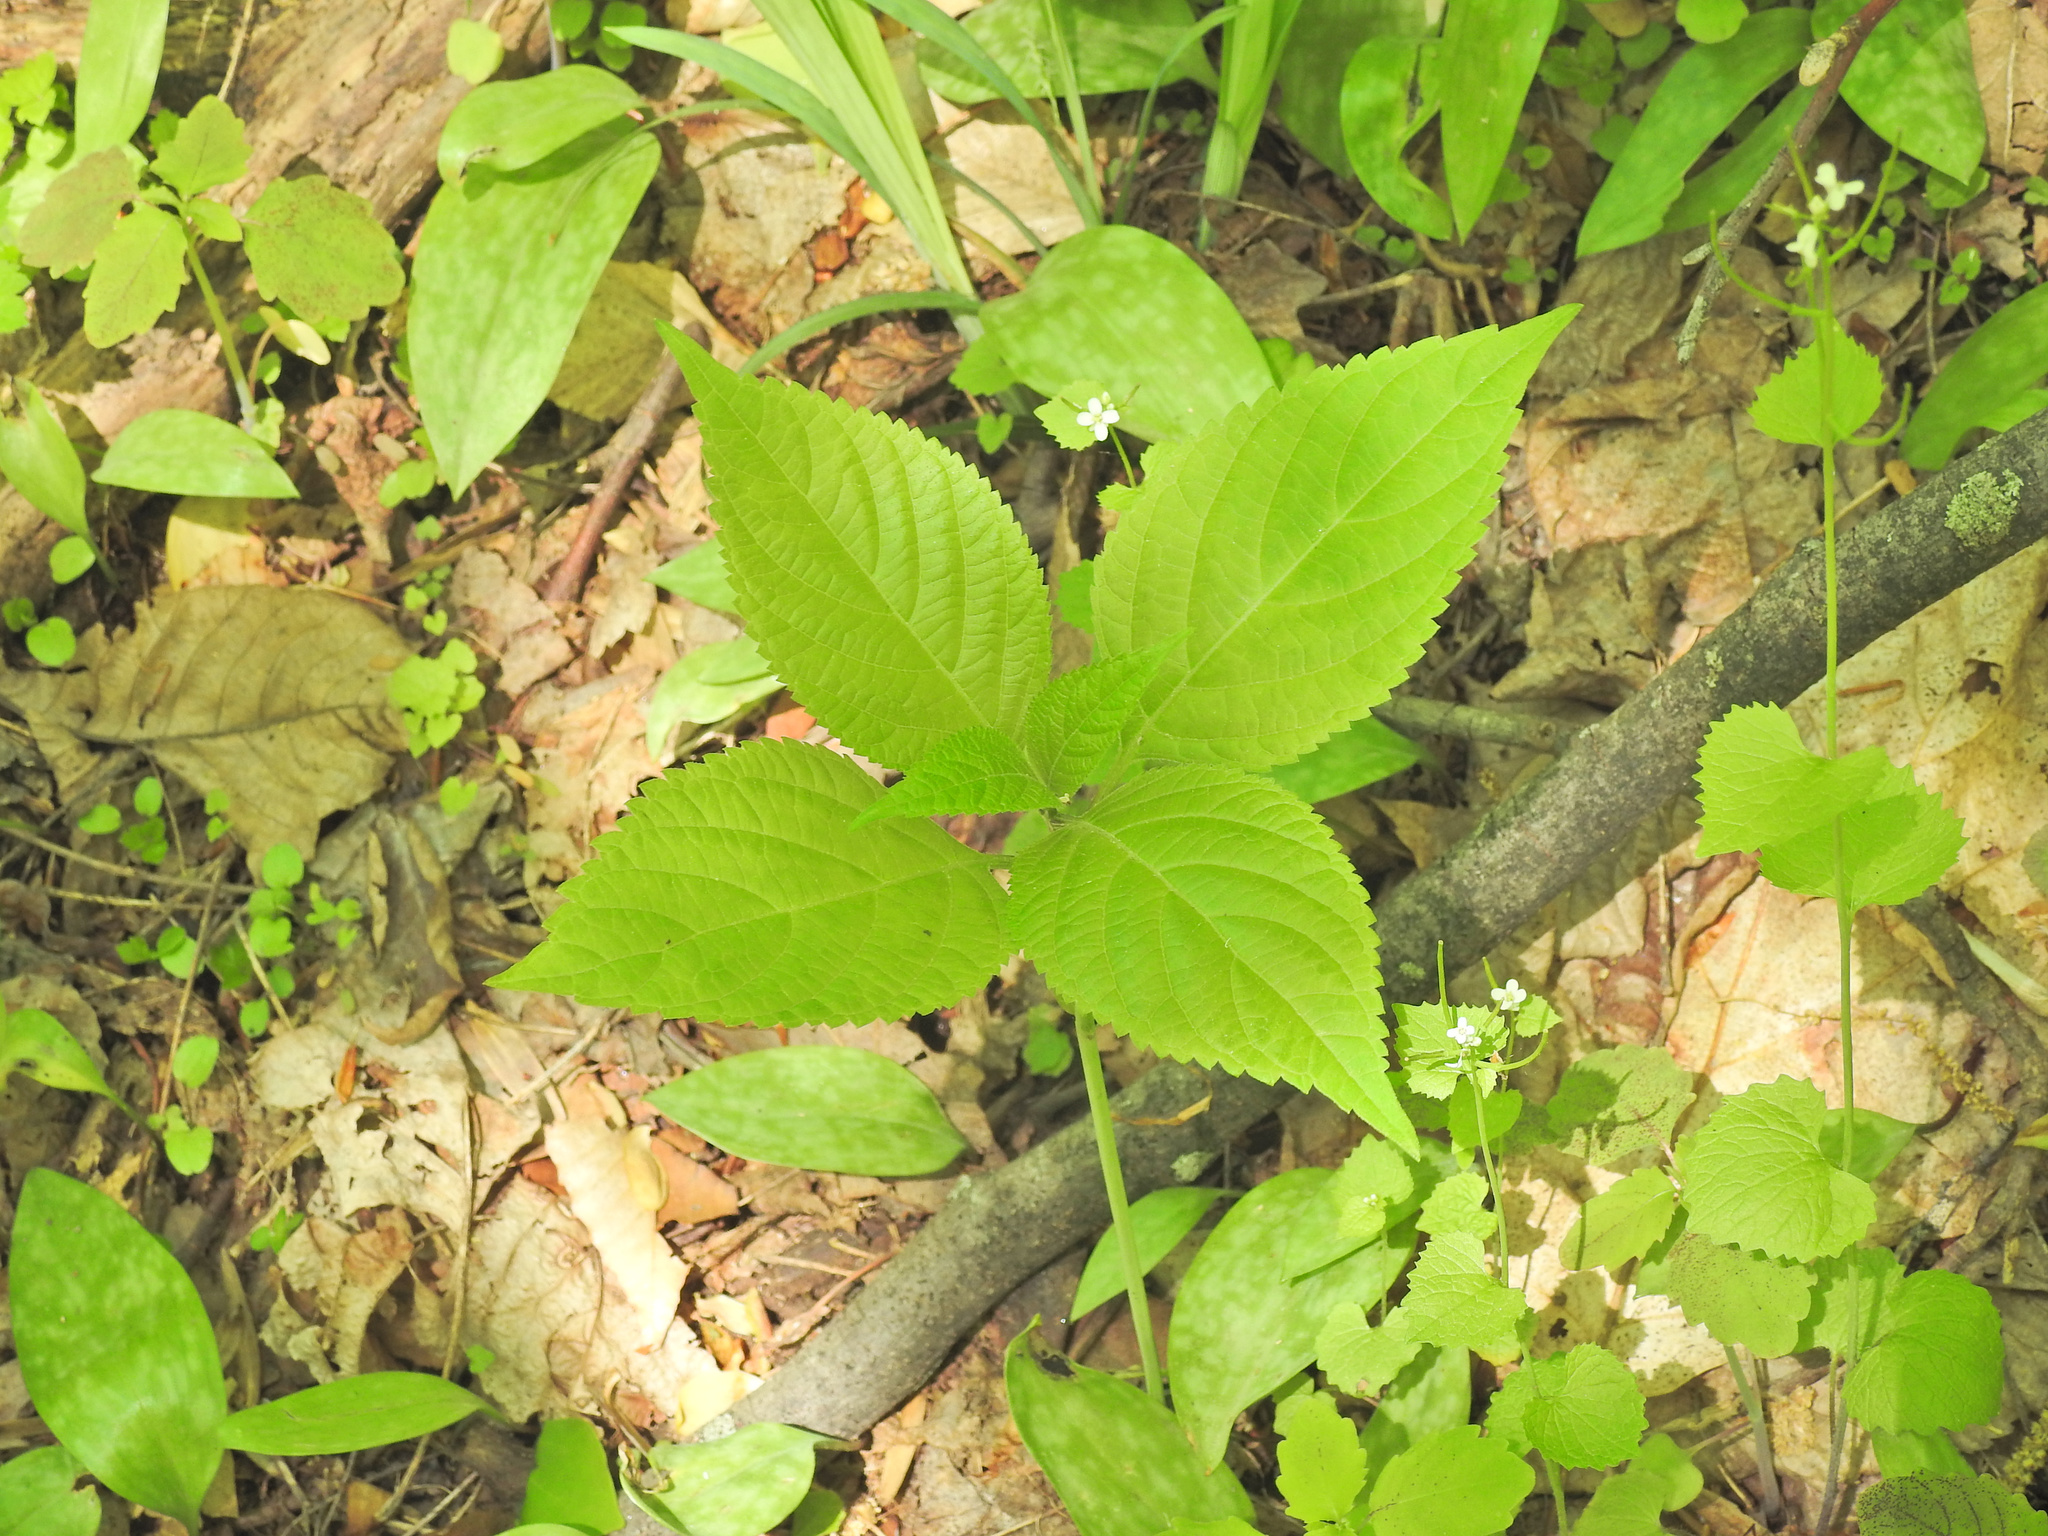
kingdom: Plantae
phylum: Tracheophyta
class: Magnoliopsida
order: Lamiales
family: Lamiaceae
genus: Collinsonia
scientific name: Collinsonia canadensis
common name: Northern horsebalm
